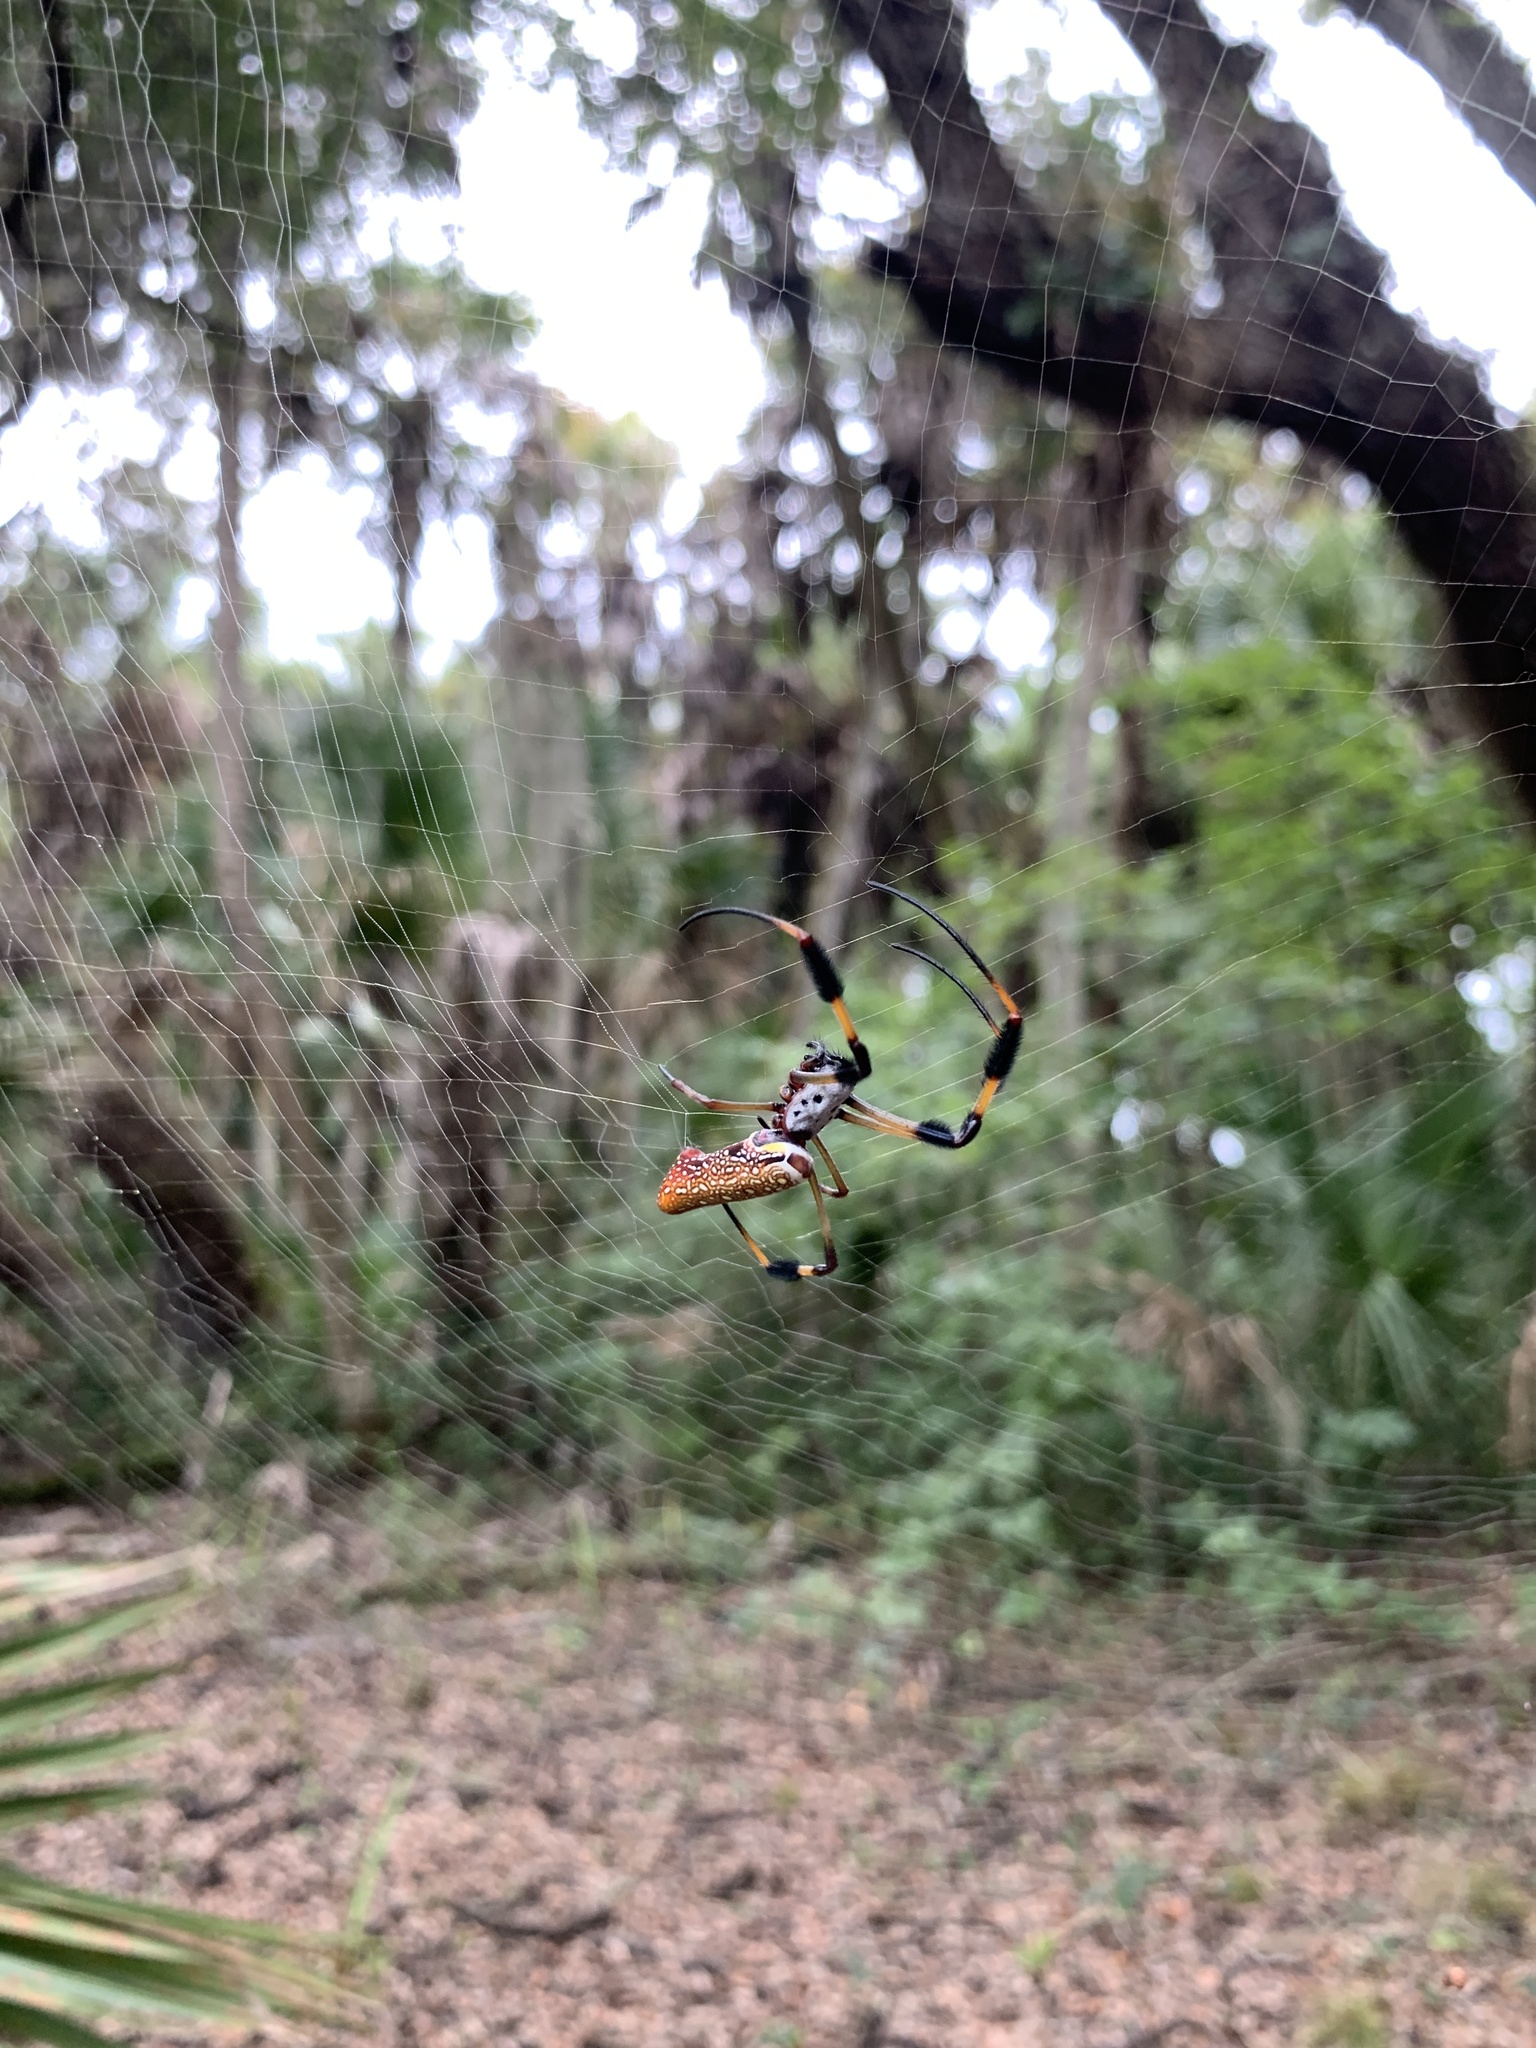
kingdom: Animalia
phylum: Arthropoda
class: Arachnida
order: Araneae
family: Araneidae
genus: Trichonephila
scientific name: Trichonephila clavipes
